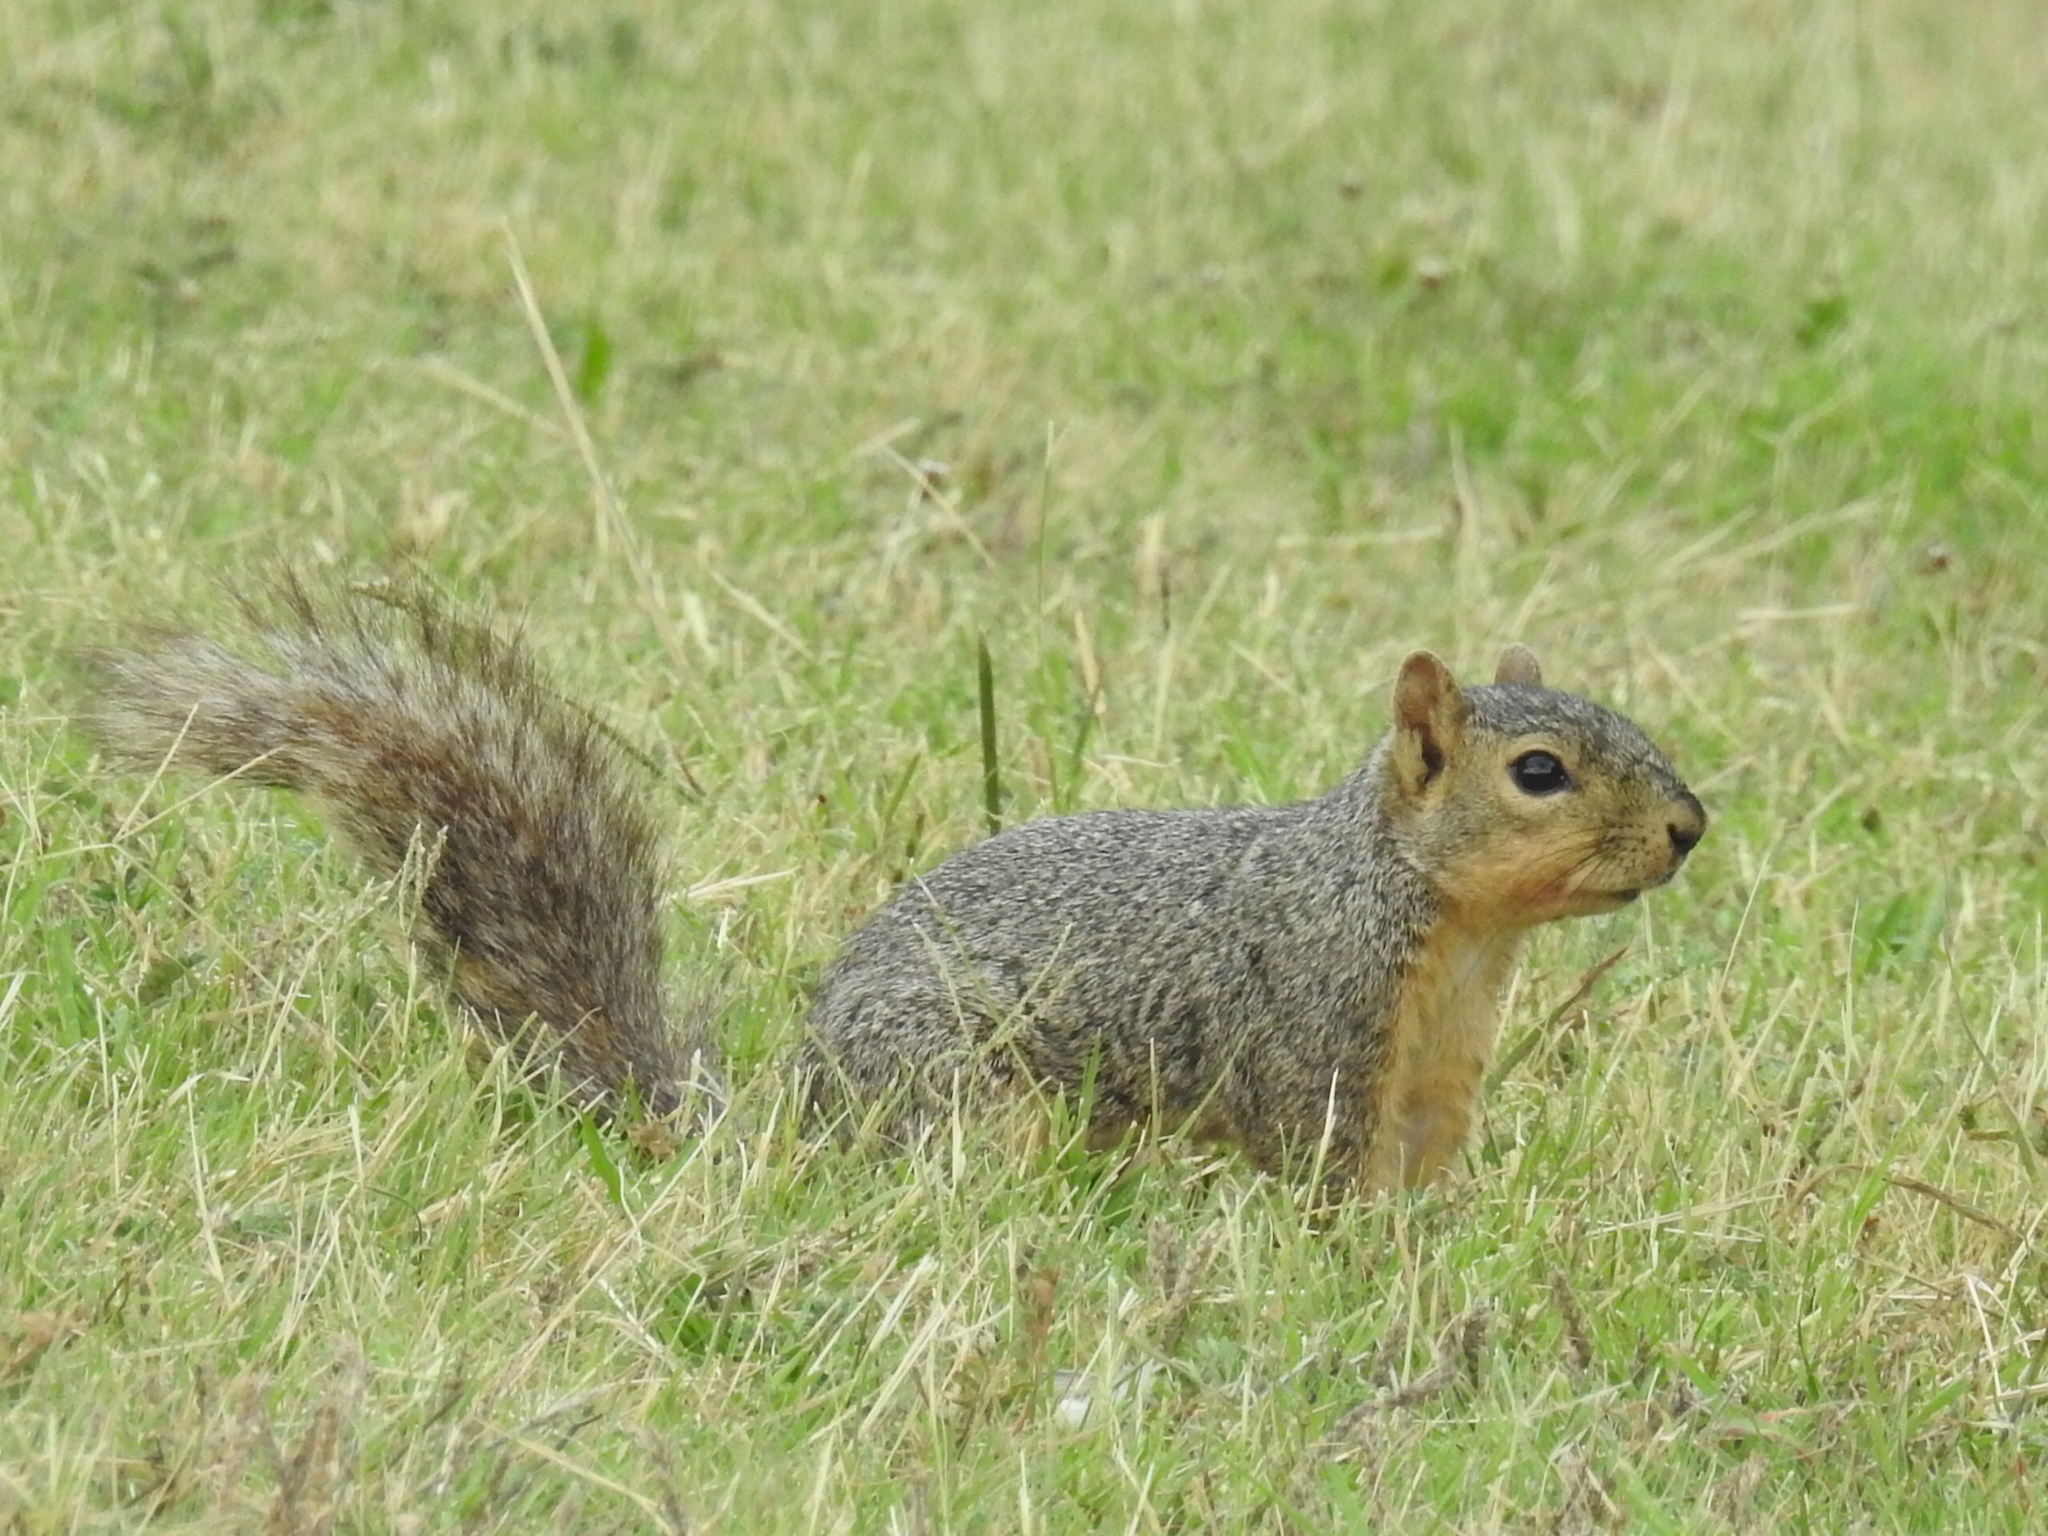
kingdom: Animalia
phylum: Chordata
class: Mammalia
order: Rodentia
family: Sciuridae
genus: Sciurus
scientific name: Sciurus niger
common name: Fox squirrel
